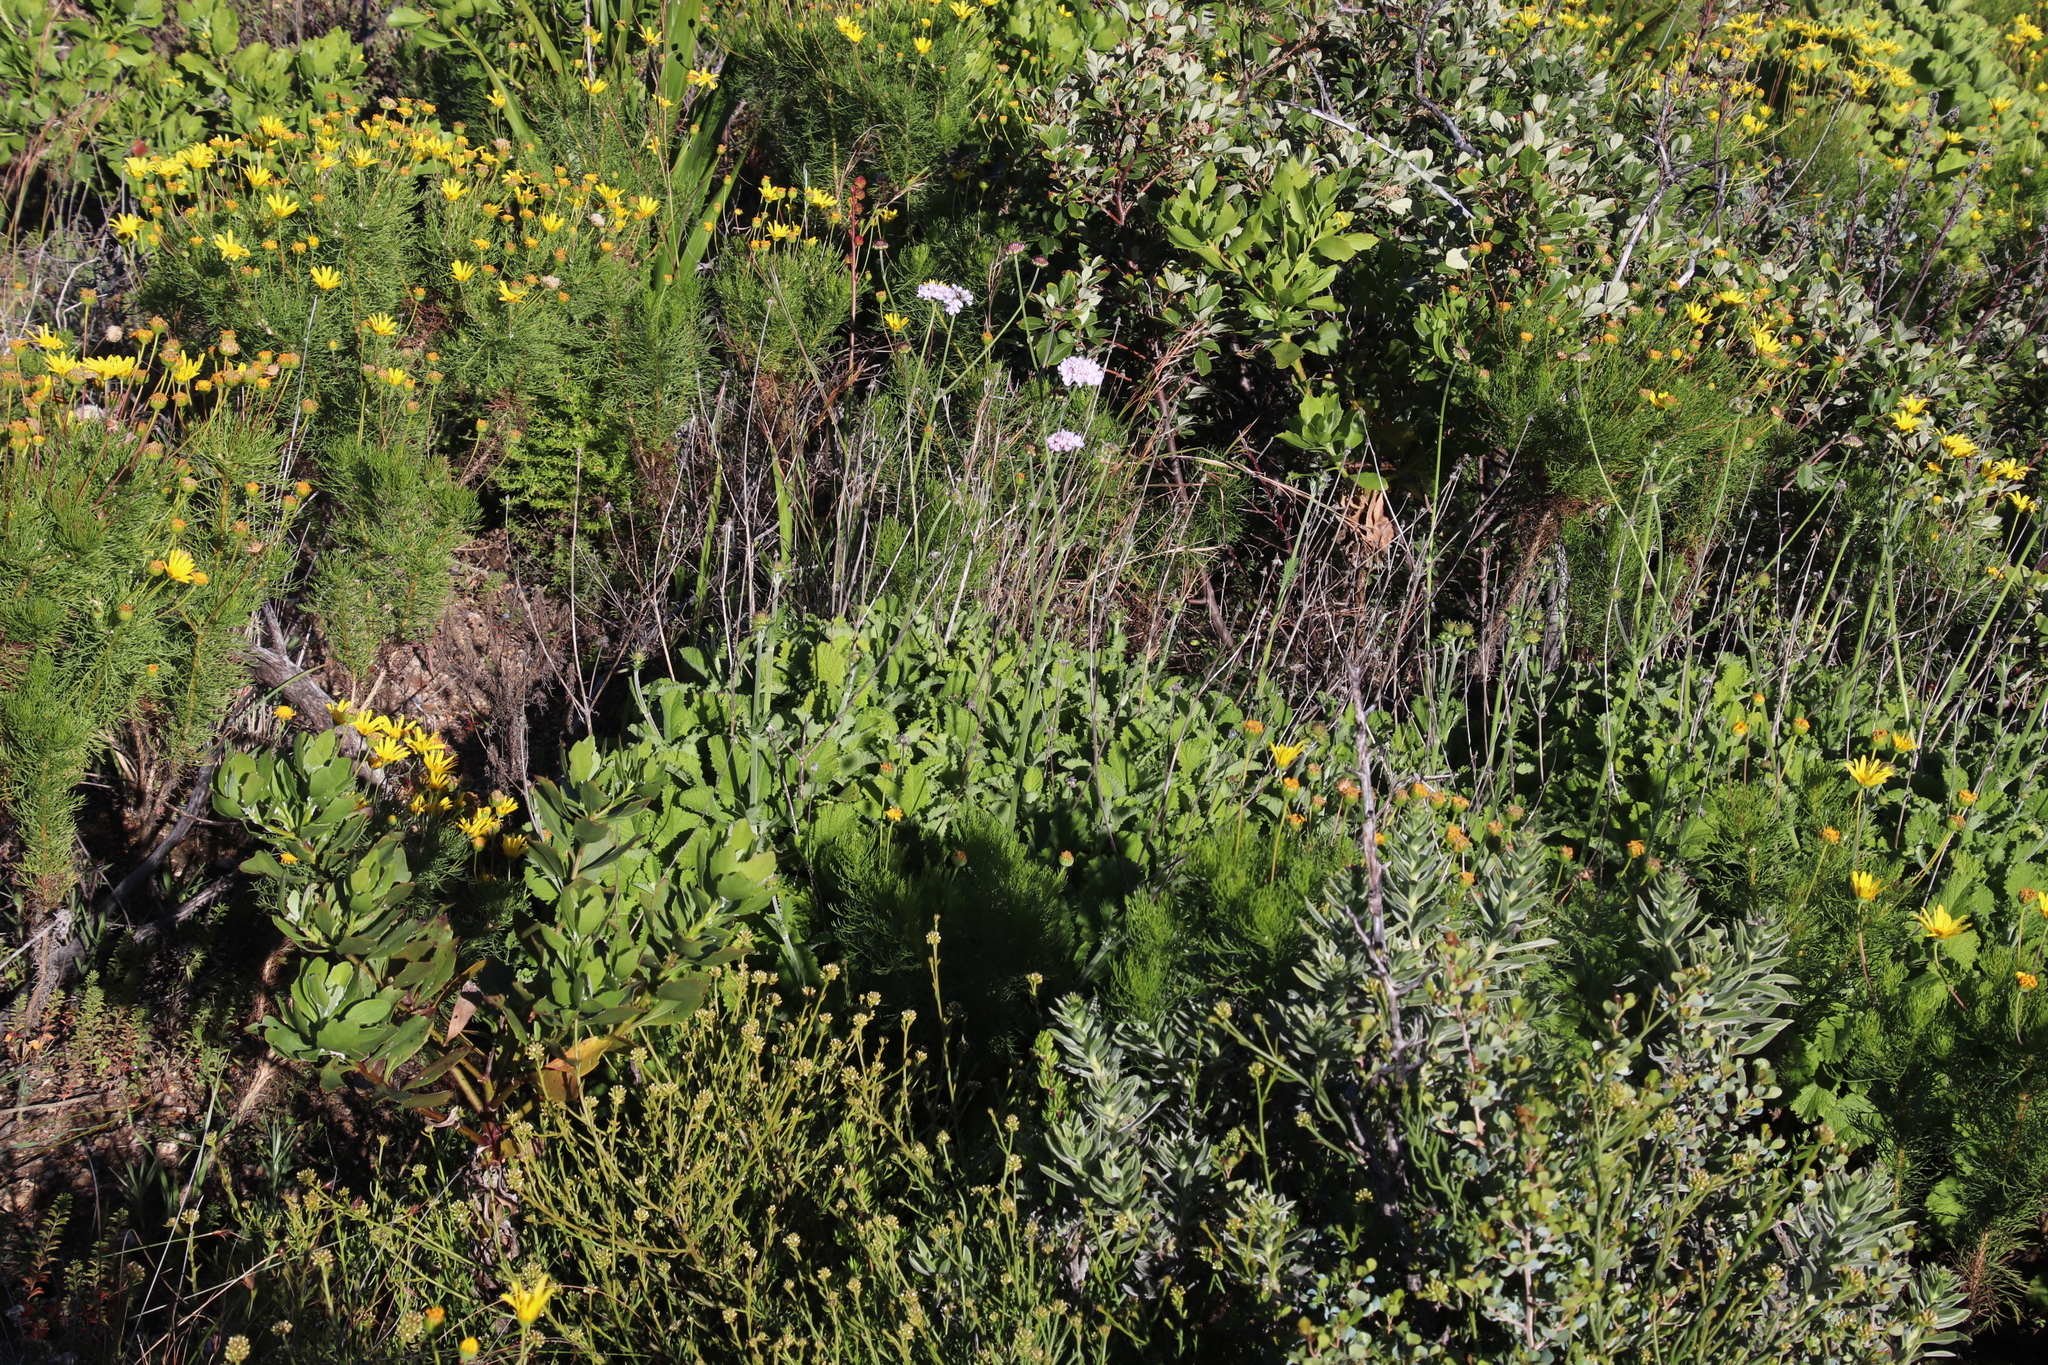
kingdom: Plantae
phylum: Tracheophyta
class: Magnoliopsida
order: Dipsacales
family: Caprifoliaceae
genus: Scabiosa
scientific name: Scabiosa africana
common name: Cape scabious
